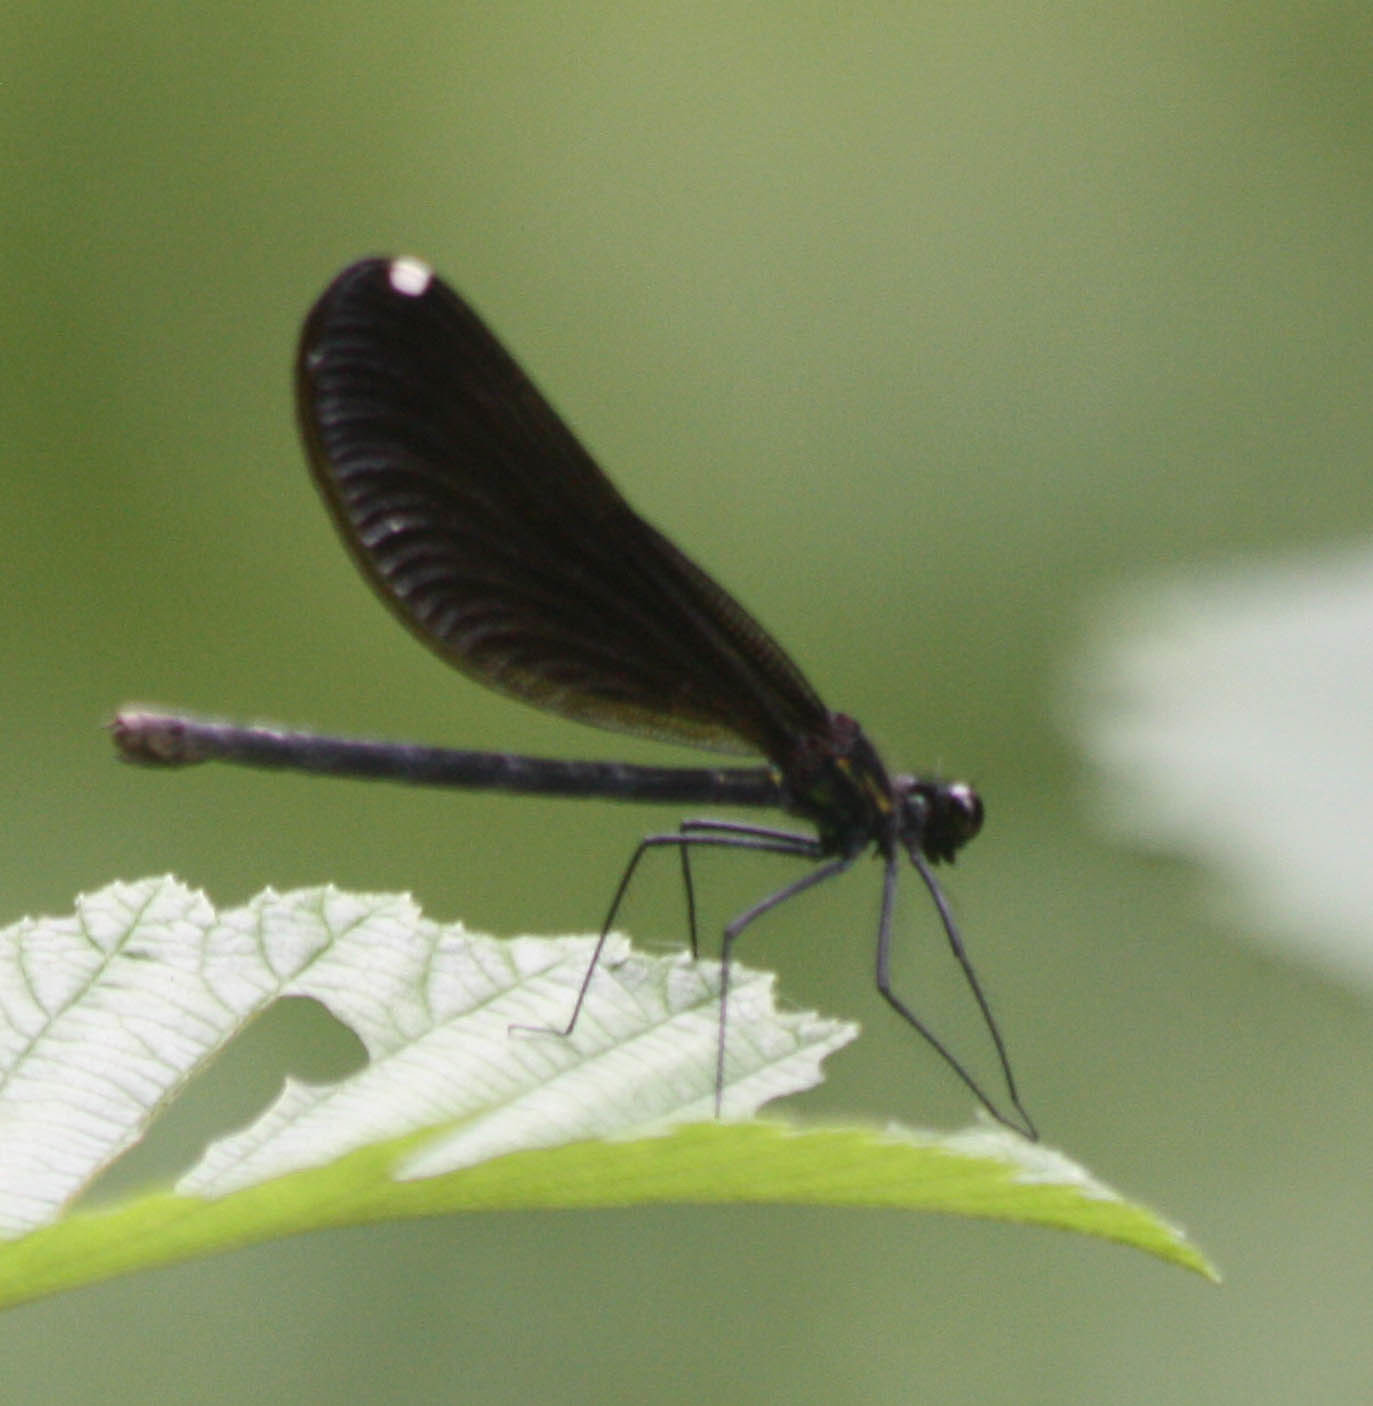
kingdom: Animalia
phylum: Arthropoda
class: Insecta
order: Odonata
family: Calopterygidae
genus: Calopteryx
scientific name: Calopteryx maculata
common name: Ebony jewelwing
